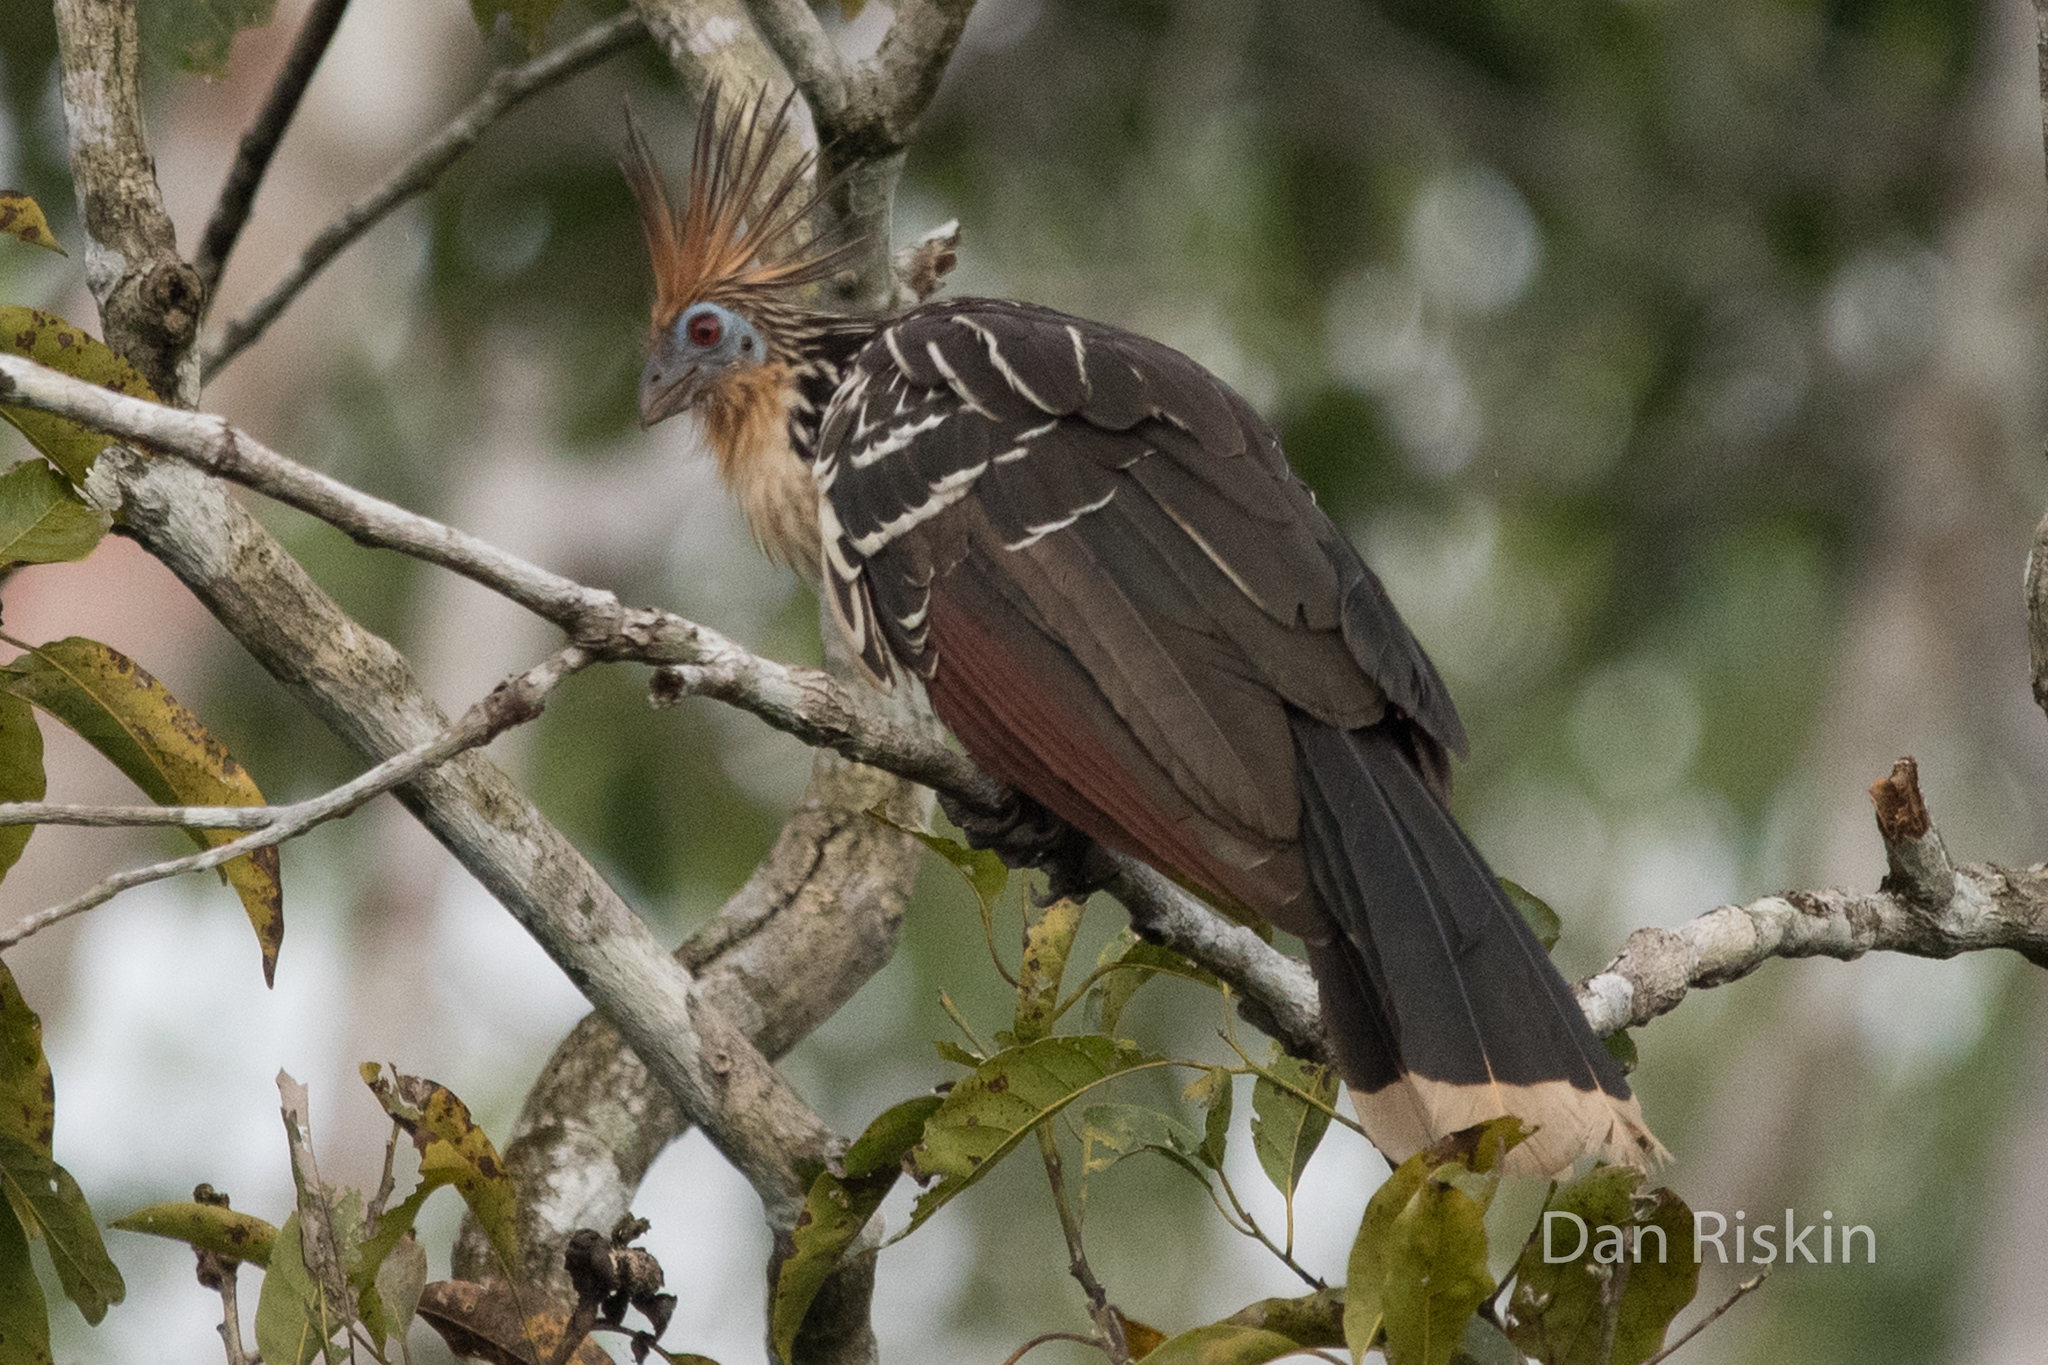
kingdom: Animalia
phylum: Chordata
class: Aves
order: Opisthocomiformes
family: Opisthocomidae
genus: Opisthocomus
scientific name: Opisthocomus hoazin
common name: Hoatzin
